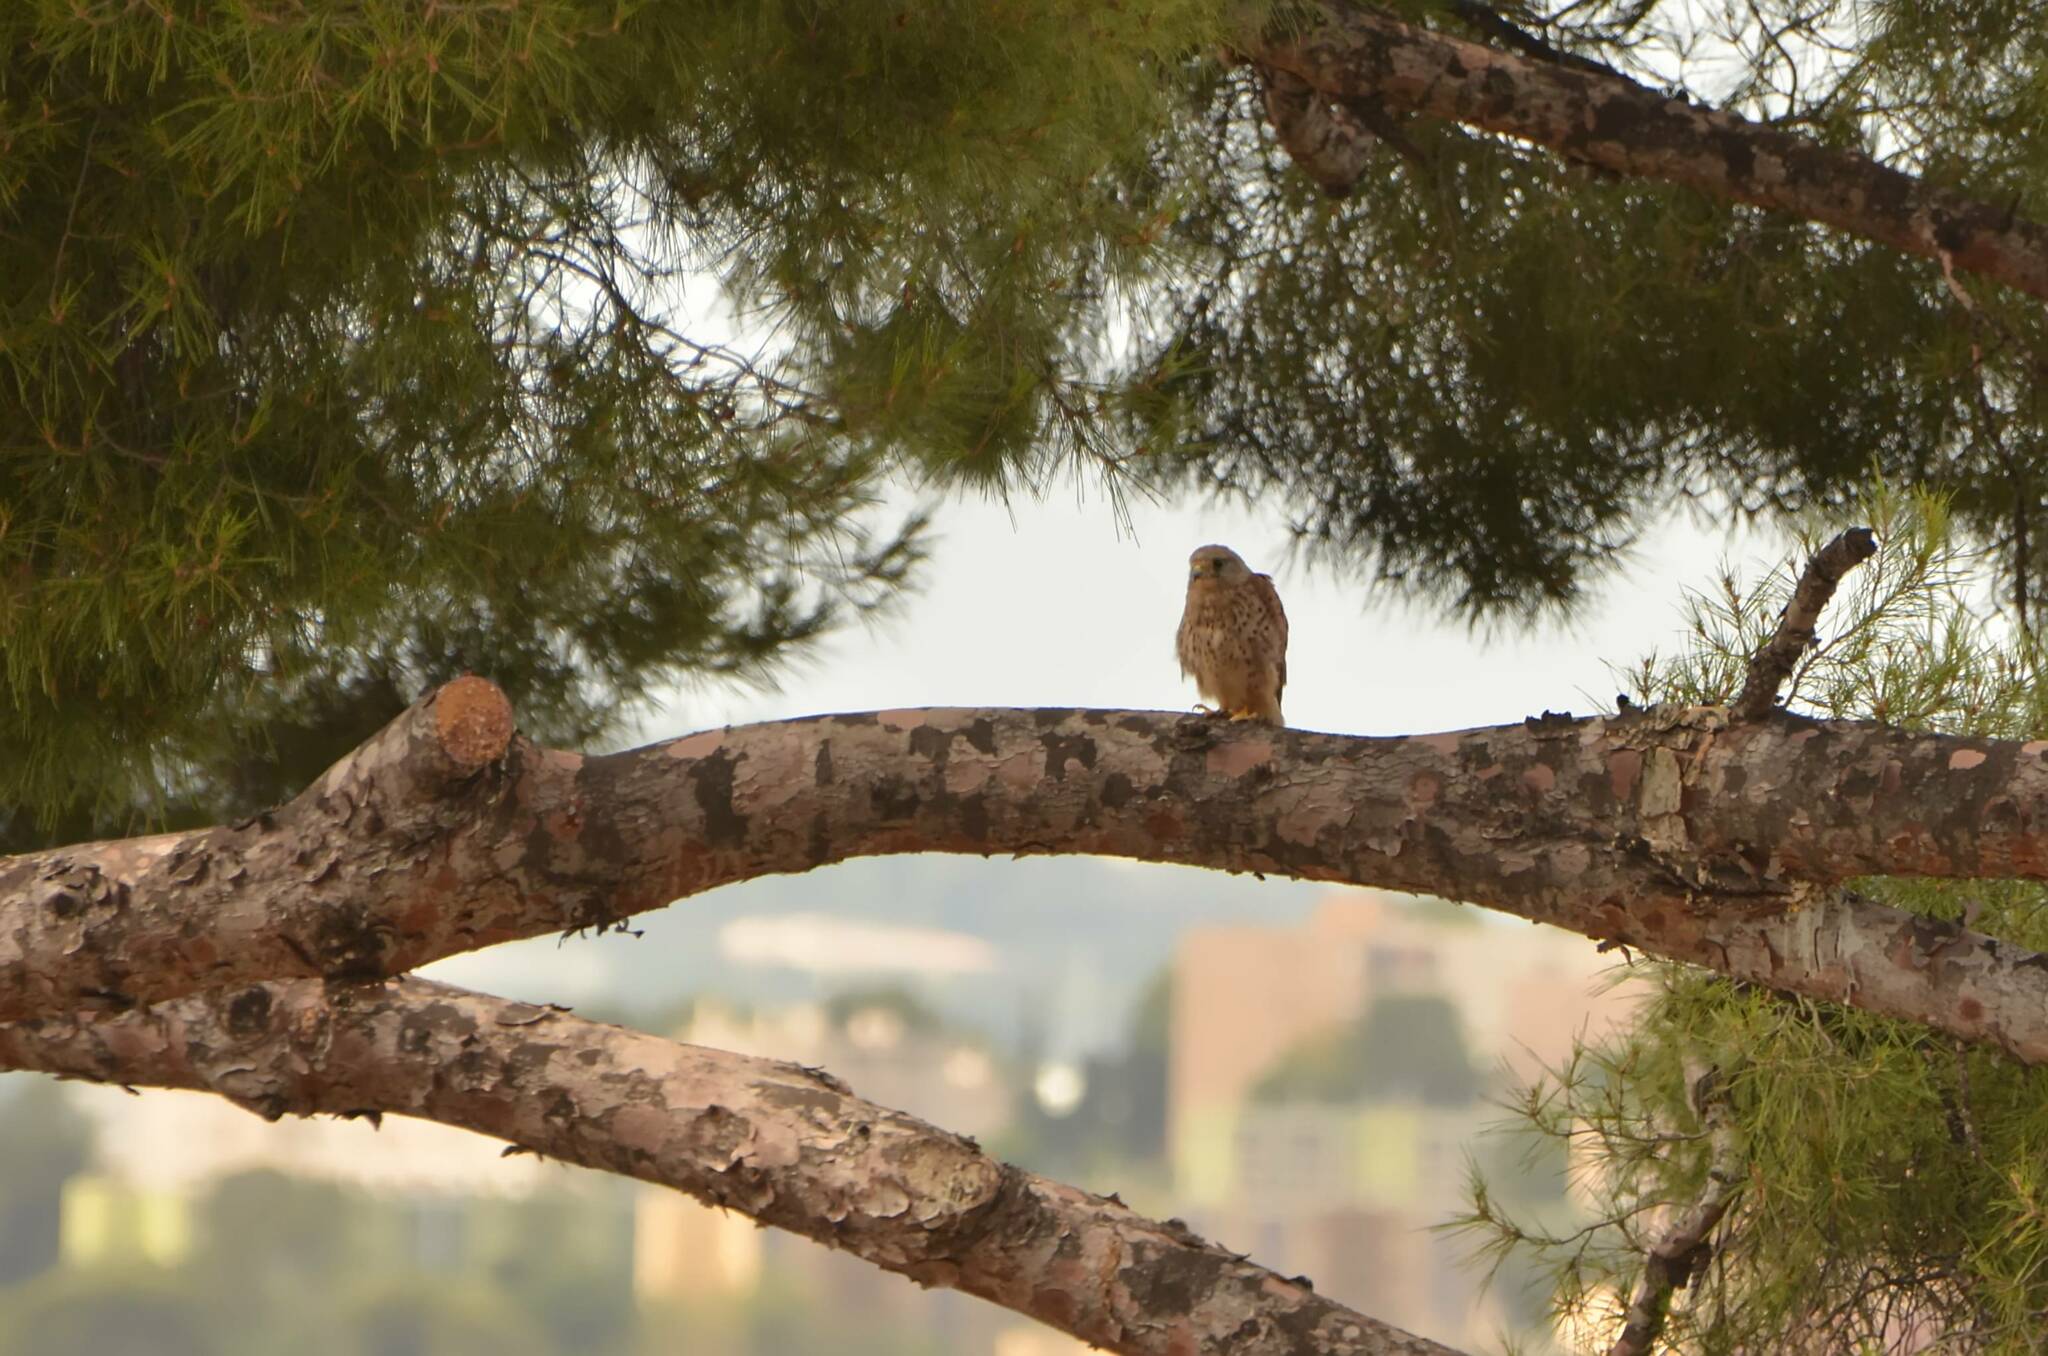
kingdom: Animalia
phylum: Chordata
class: Aves
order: Falconiformes
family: Falconidae
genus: Falco
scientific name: Falco tinnunculus
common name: Common kestrel
